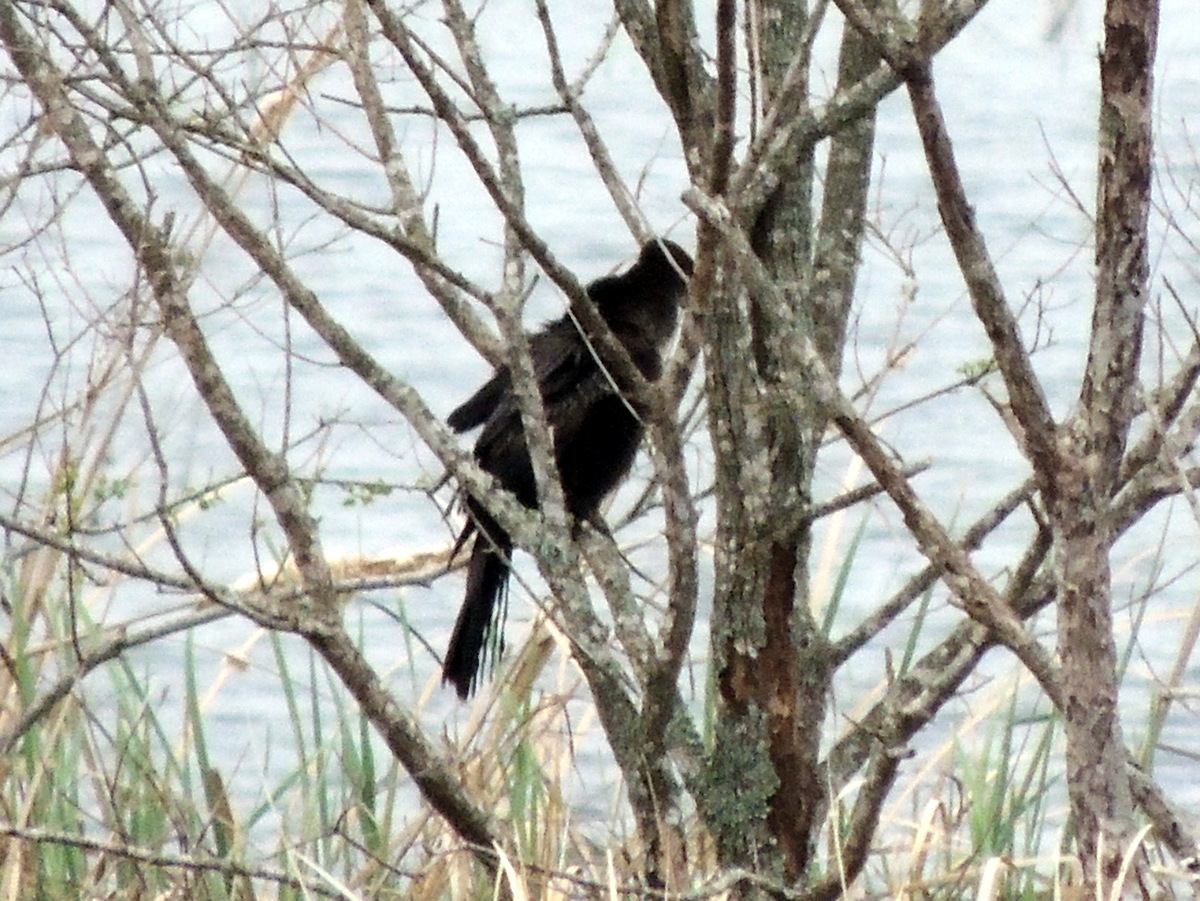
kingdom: Animalia
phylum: Chordata
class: Aves
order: Suliformes
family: Anhingidae
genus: Anhinga
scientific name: Anhinga anhinga
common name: Anhinga
